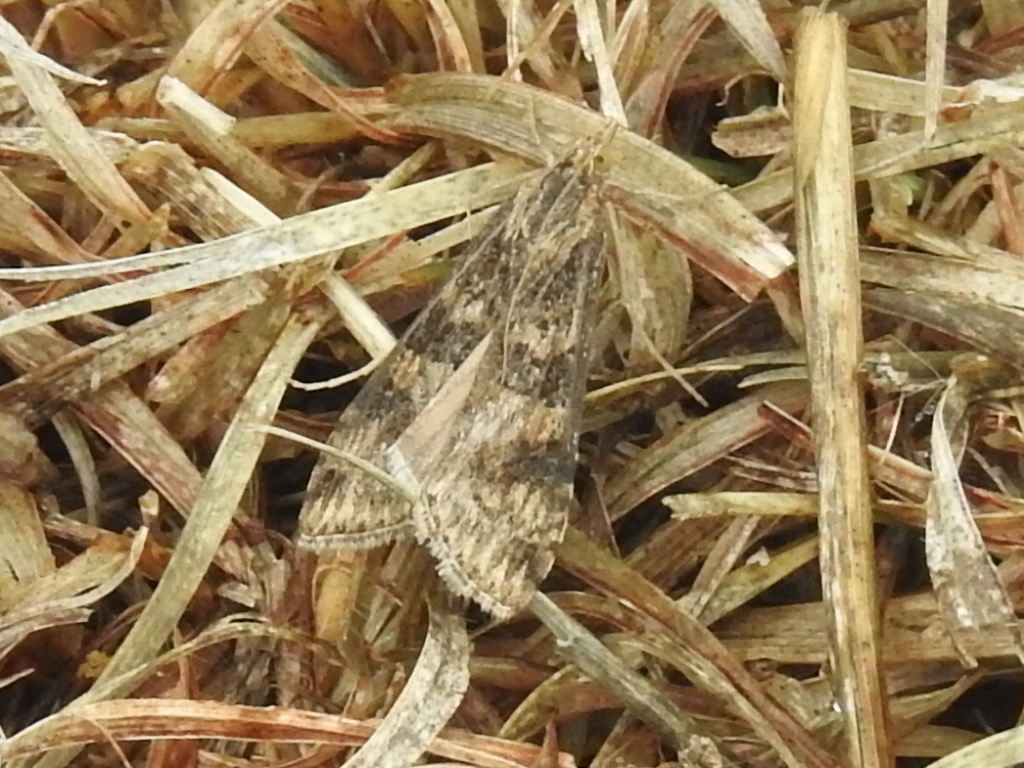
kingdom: Animalia
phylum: Arthropoda
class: Insecta
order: Lepidoptera
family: Crambidae
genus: Nomophila
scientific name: Nomophila nearctica
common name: American rush veneer
